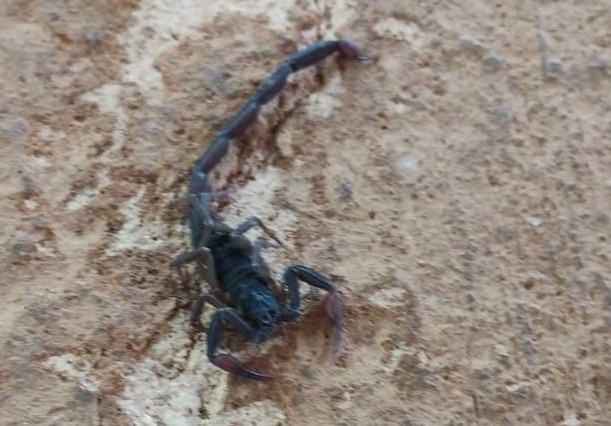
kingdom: Animalia
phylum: Arthropoda
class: Arachnida
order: Scorpiones
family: Buthidae
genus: Centruroides
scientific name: Centruroides gracilis
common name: Scorpions
